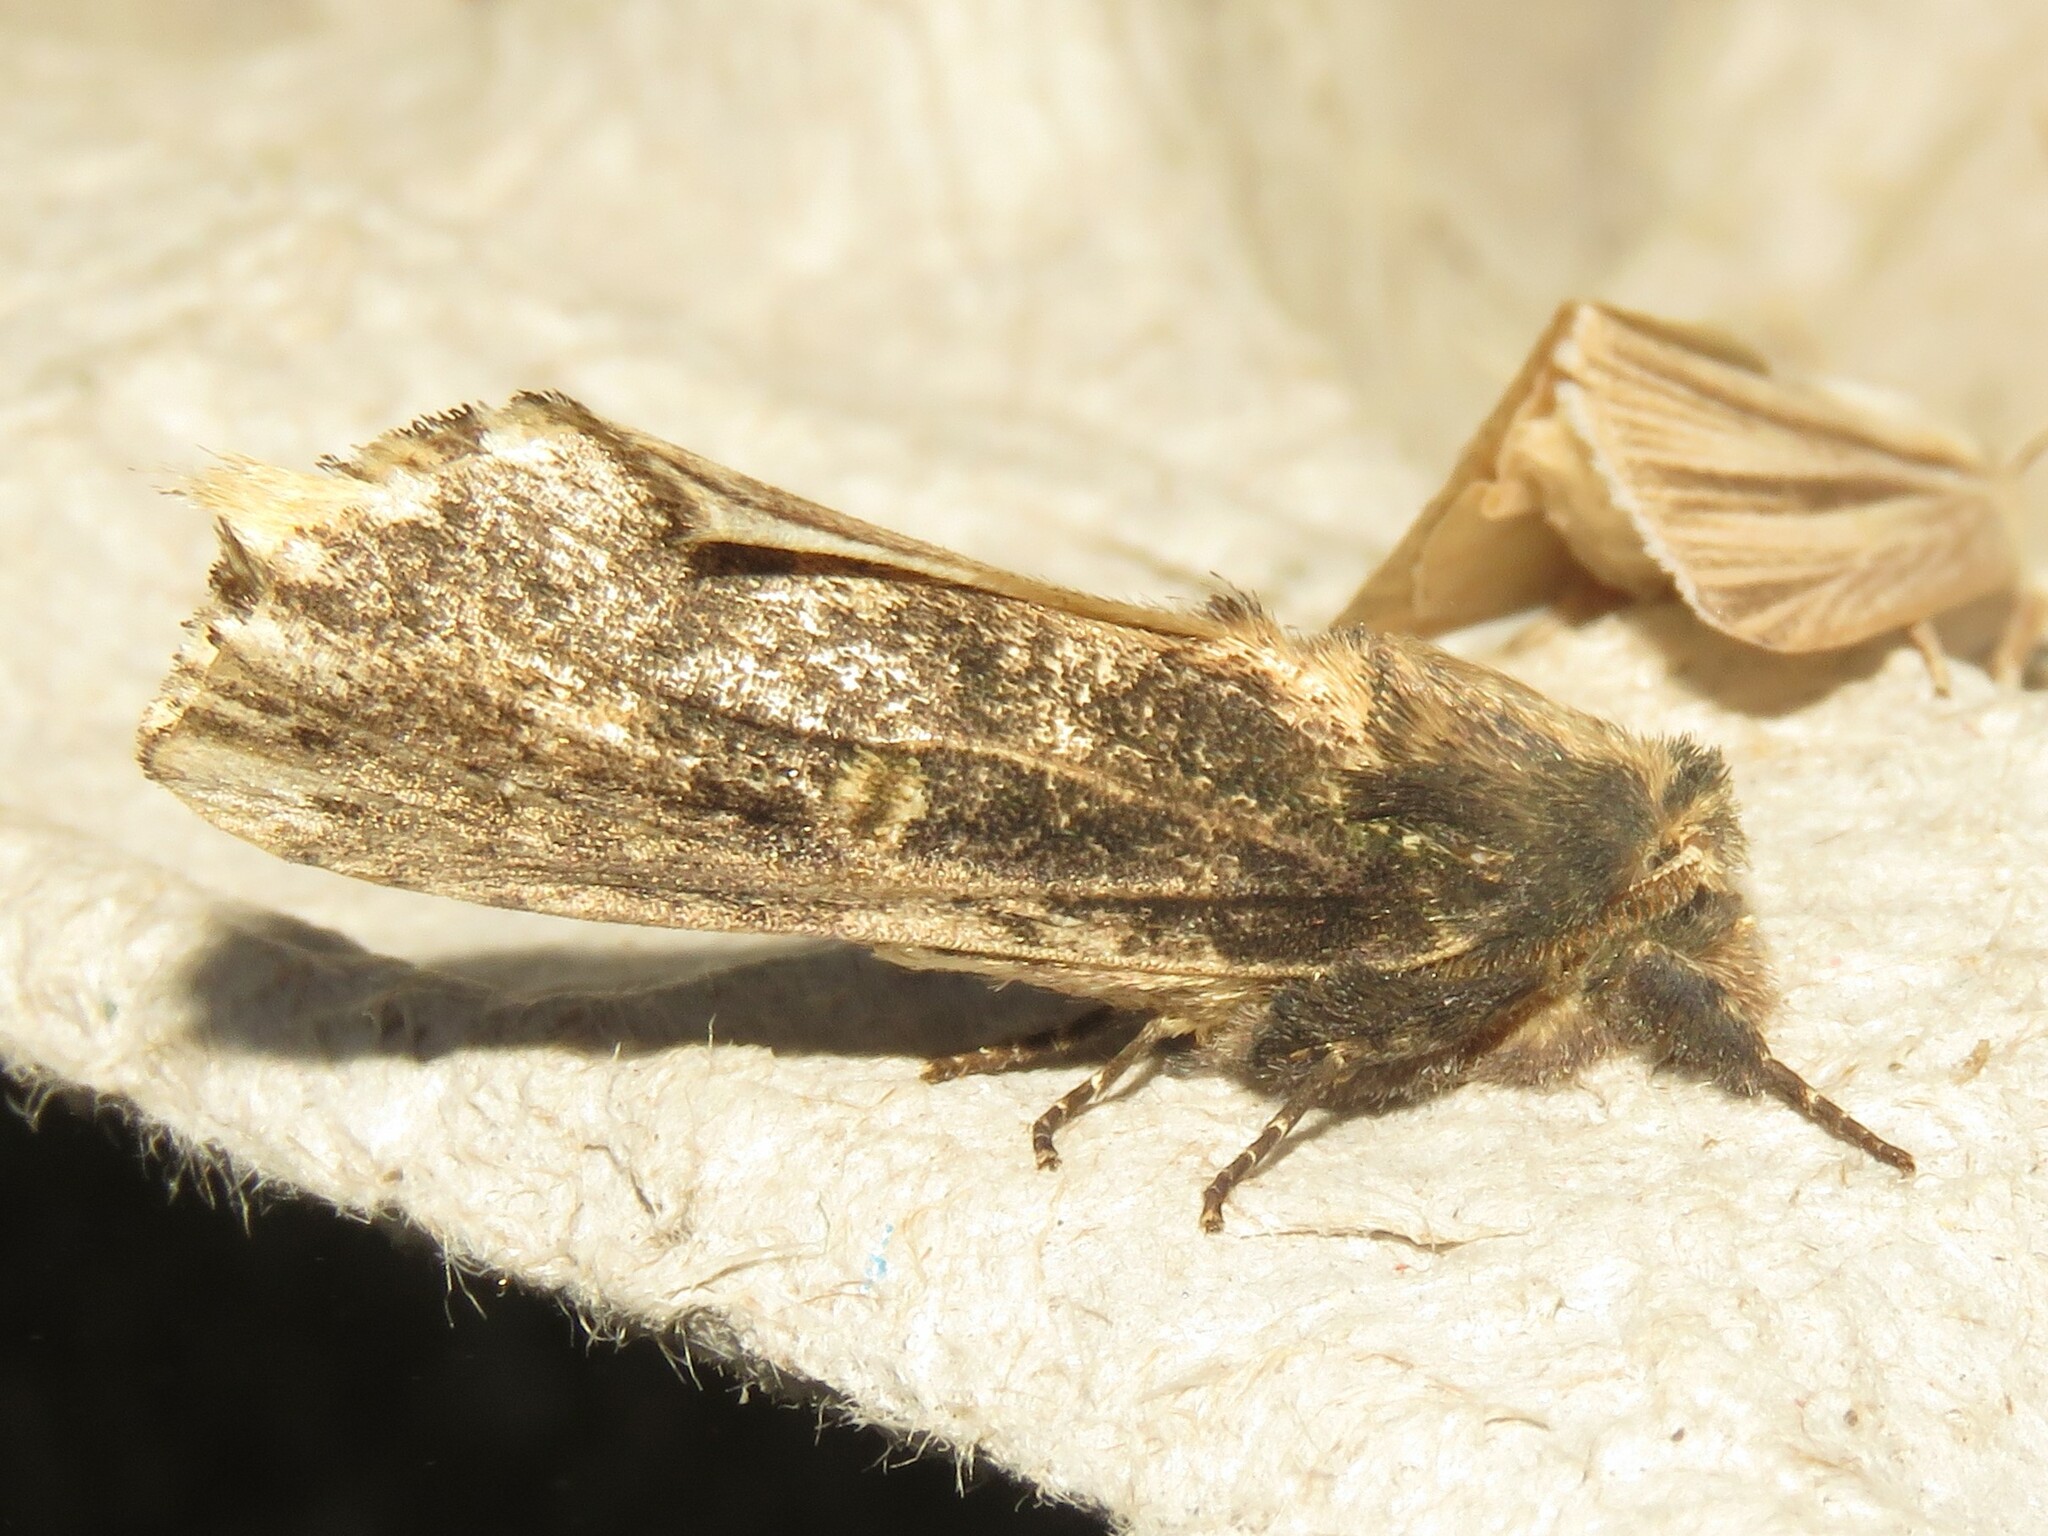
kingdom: Animalia
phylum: Arthropoda
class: Insecta
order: Lepidoptera
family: Notodontidae
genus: Schizura
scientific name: Schizura ipomaeae
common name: Morning-glory prominent
